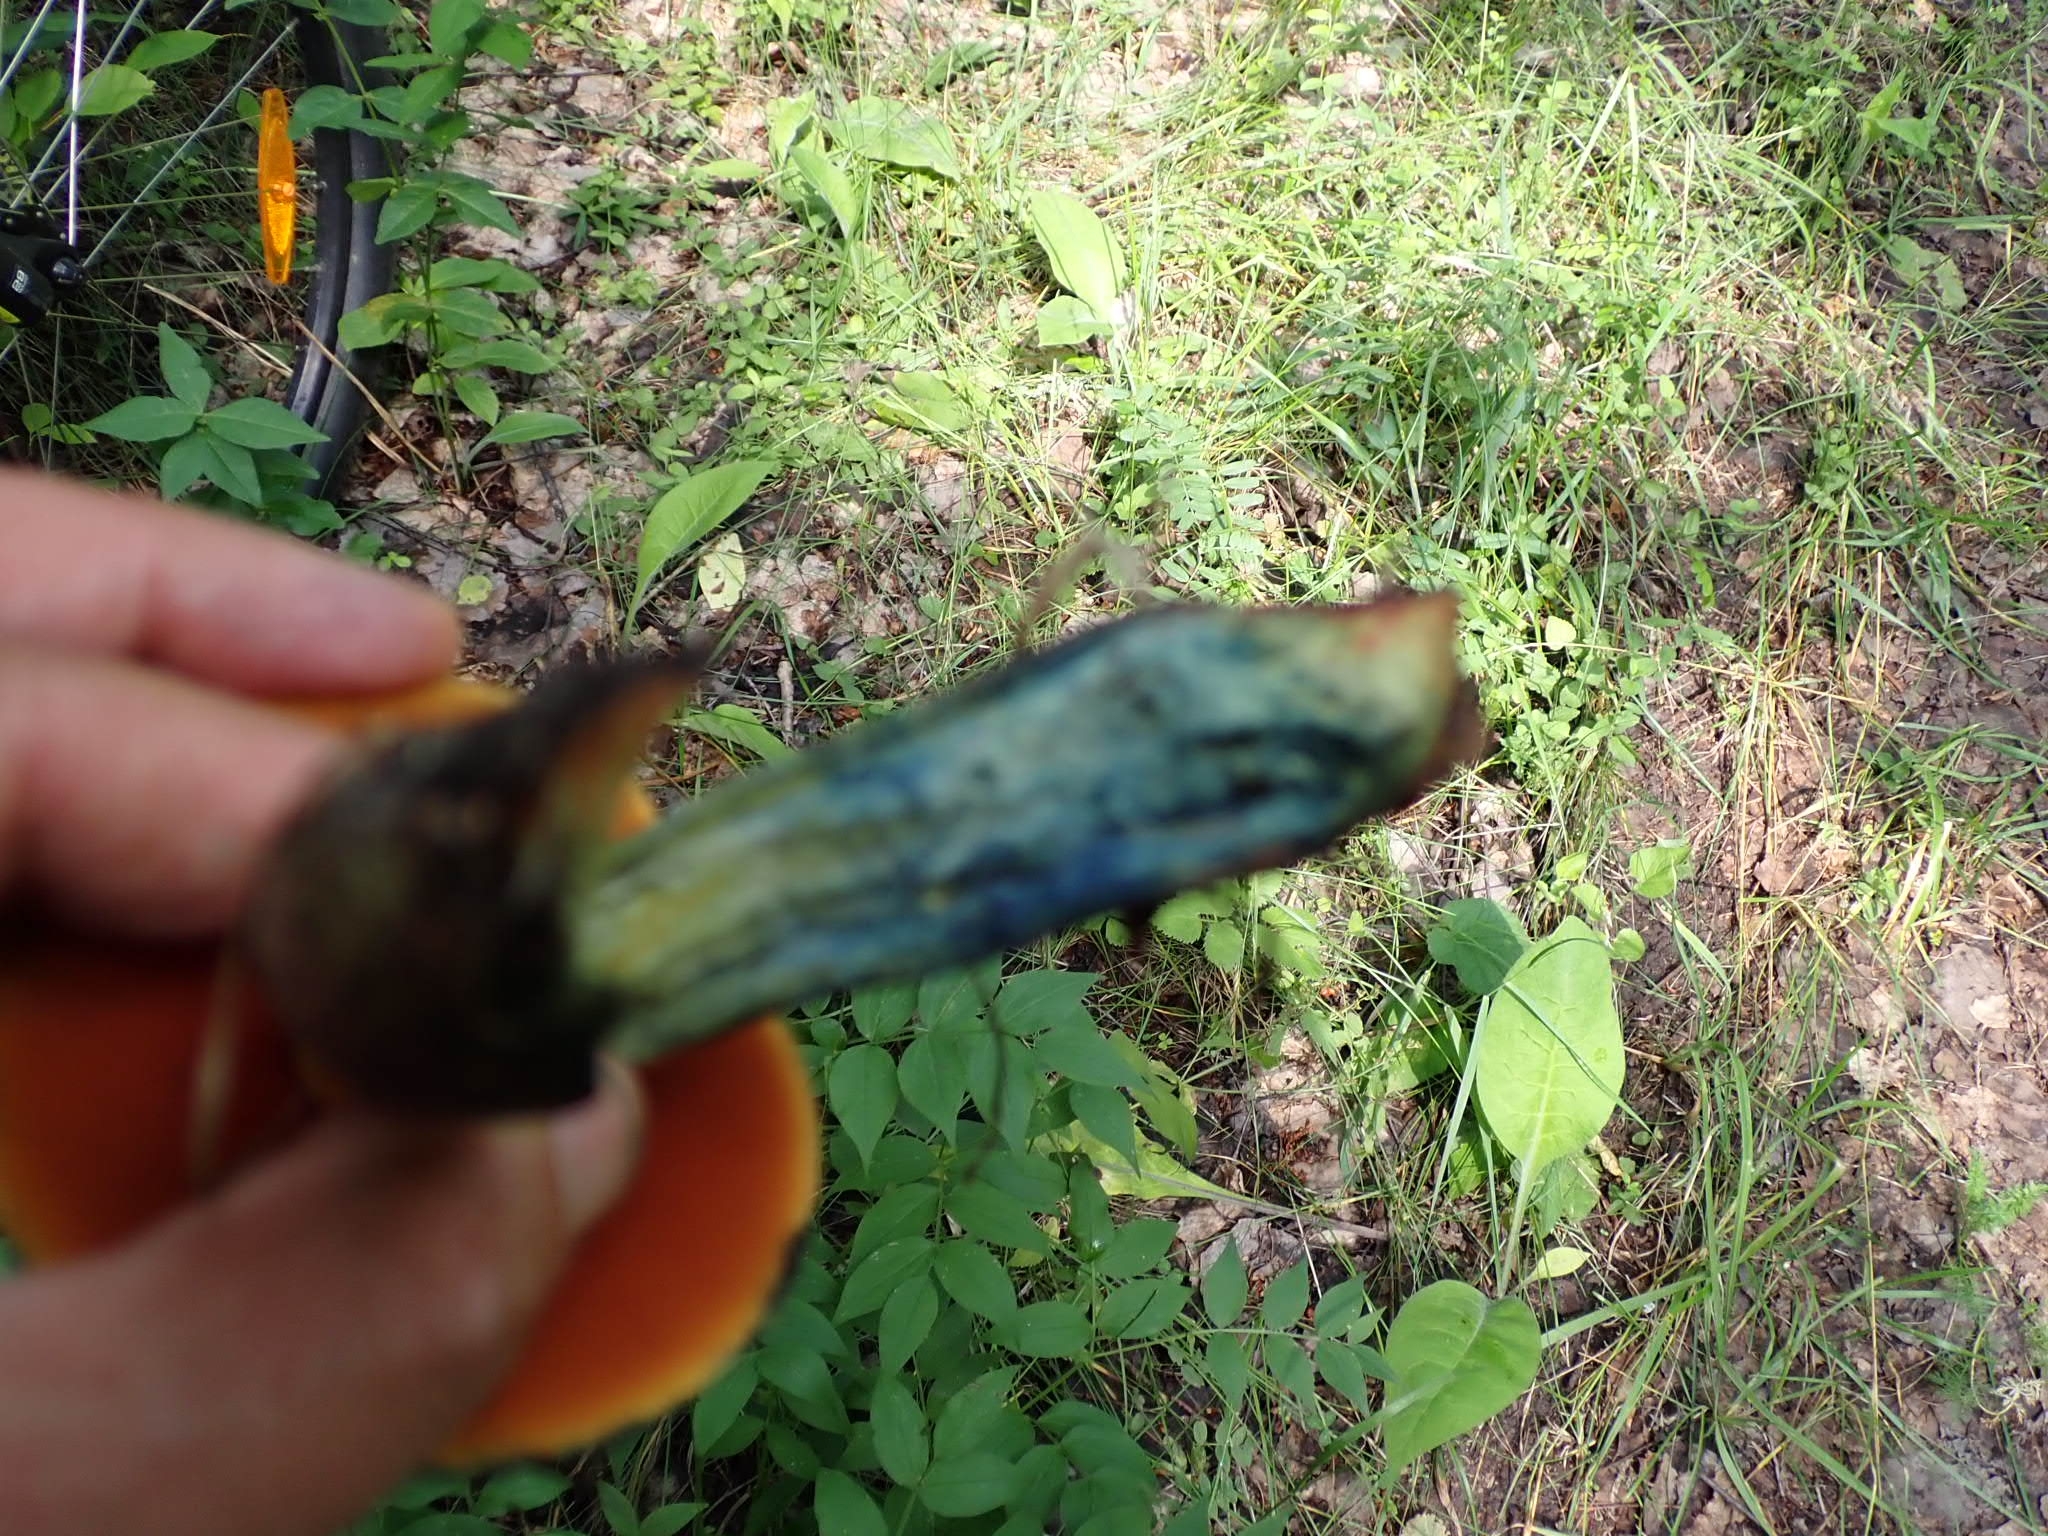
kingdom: Fungi
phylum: Basidiomycota
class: Agaricomycetes
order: Boletales
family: Boletaceae
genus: Suillellus
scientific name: Suillellus luridus
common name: Lurid bolete
